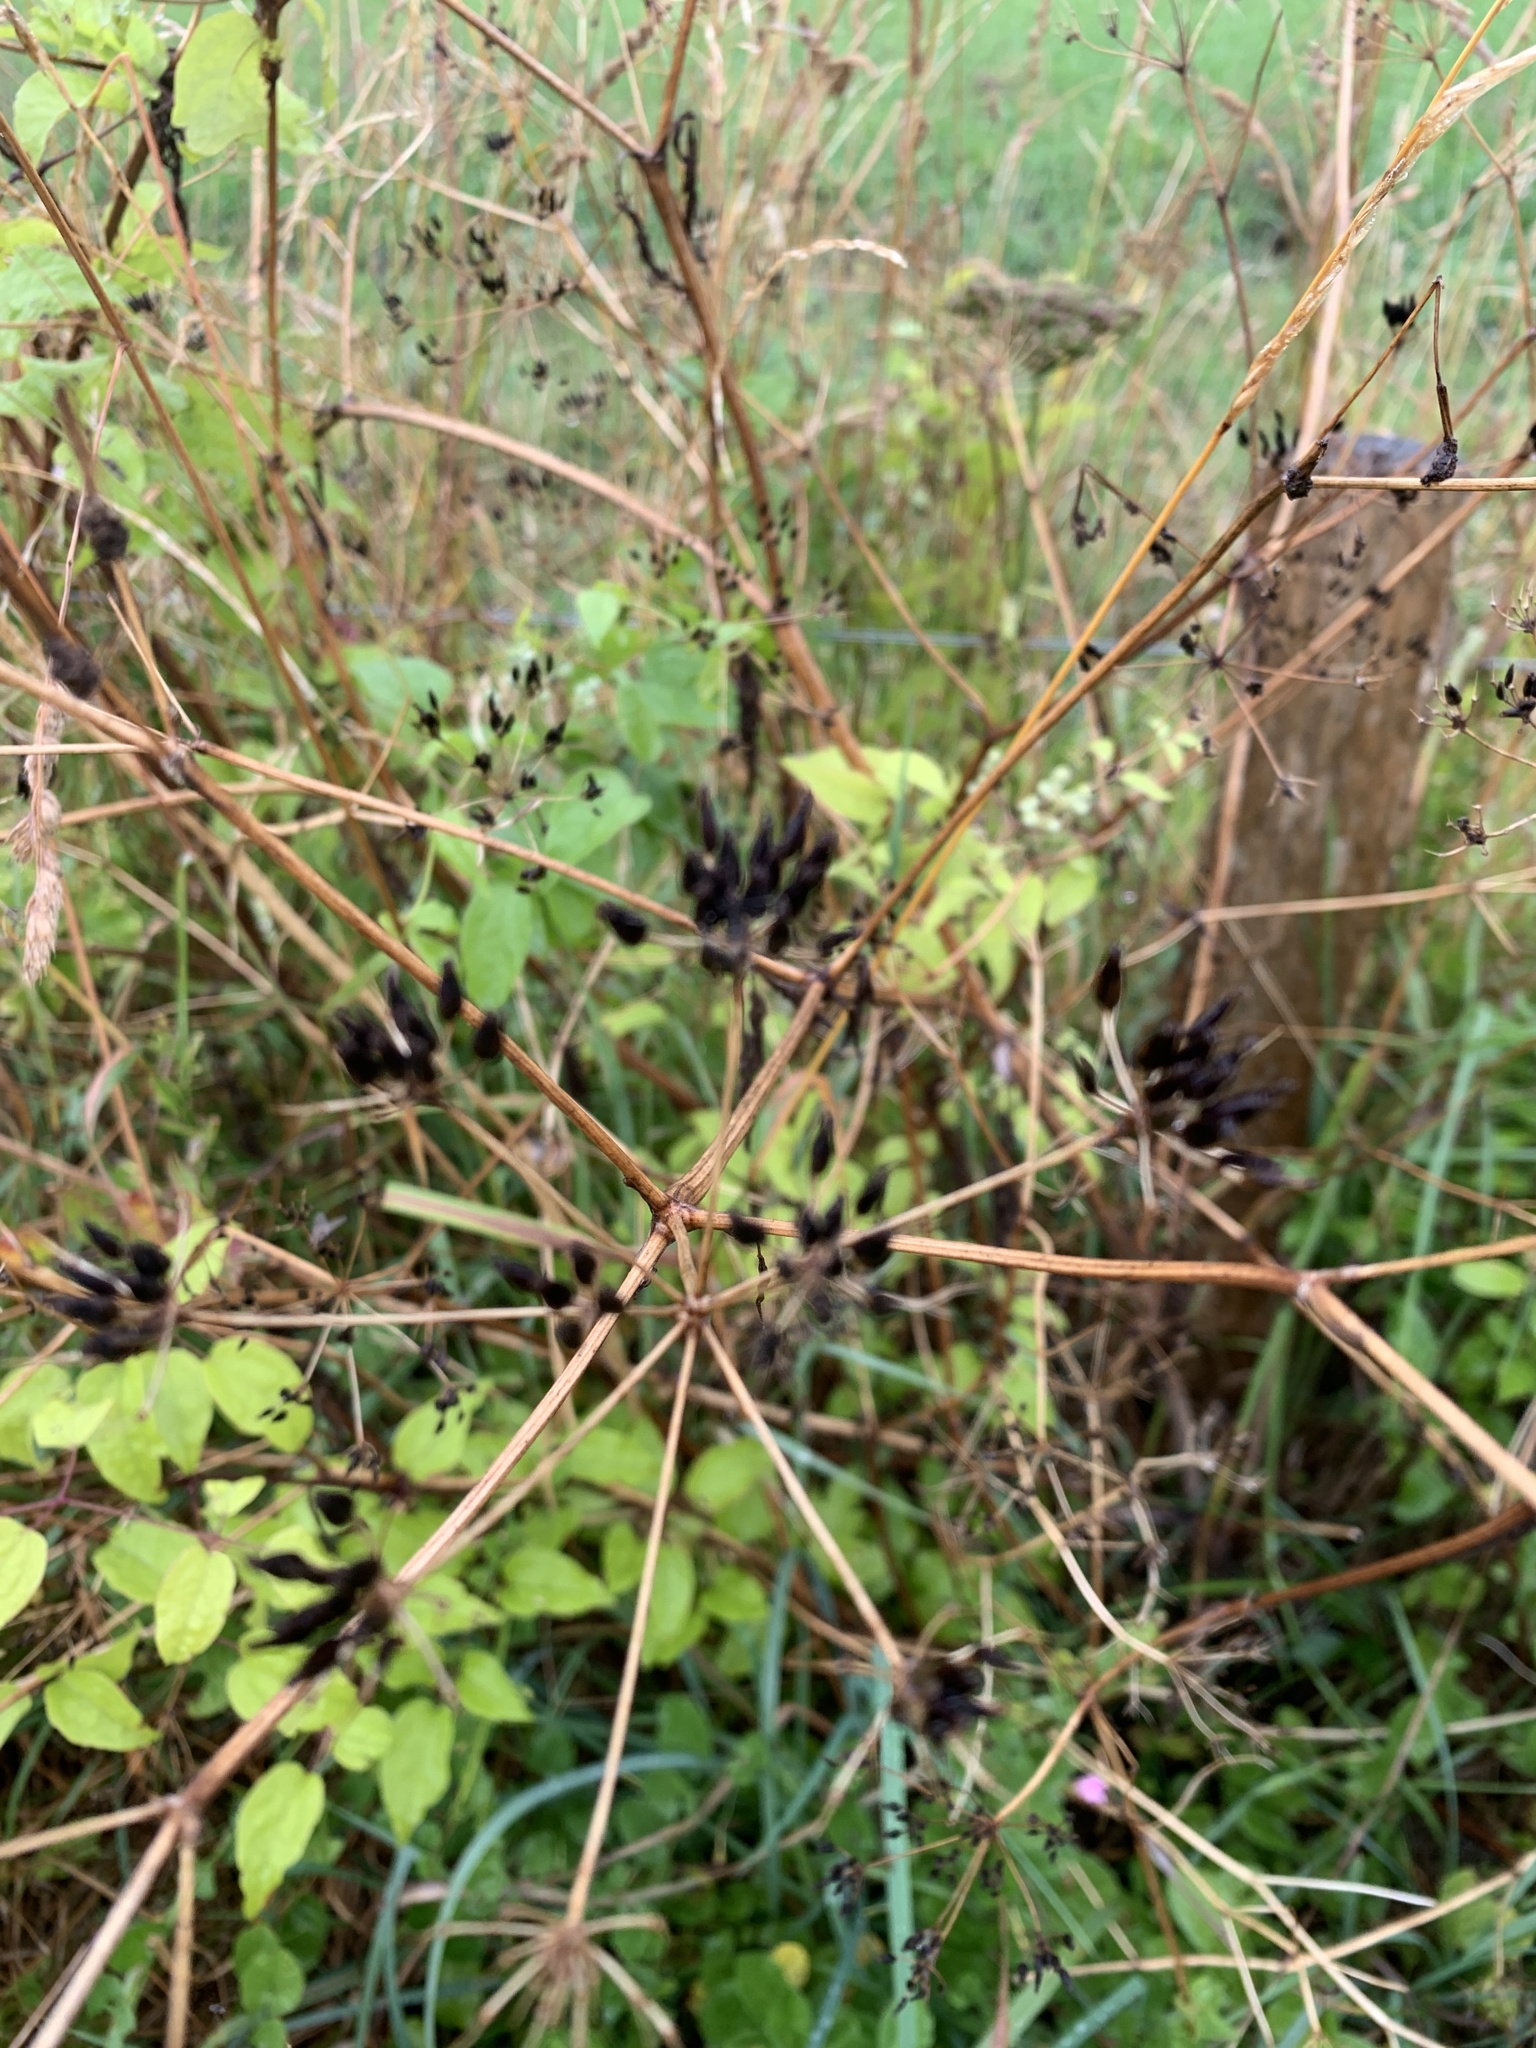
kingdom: Plantae
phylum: Tracheophyta
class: Magnoliopsida
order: Apiales
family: Apiaceae
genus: Daucus
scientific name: Daucus carota
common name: Wild carrot
